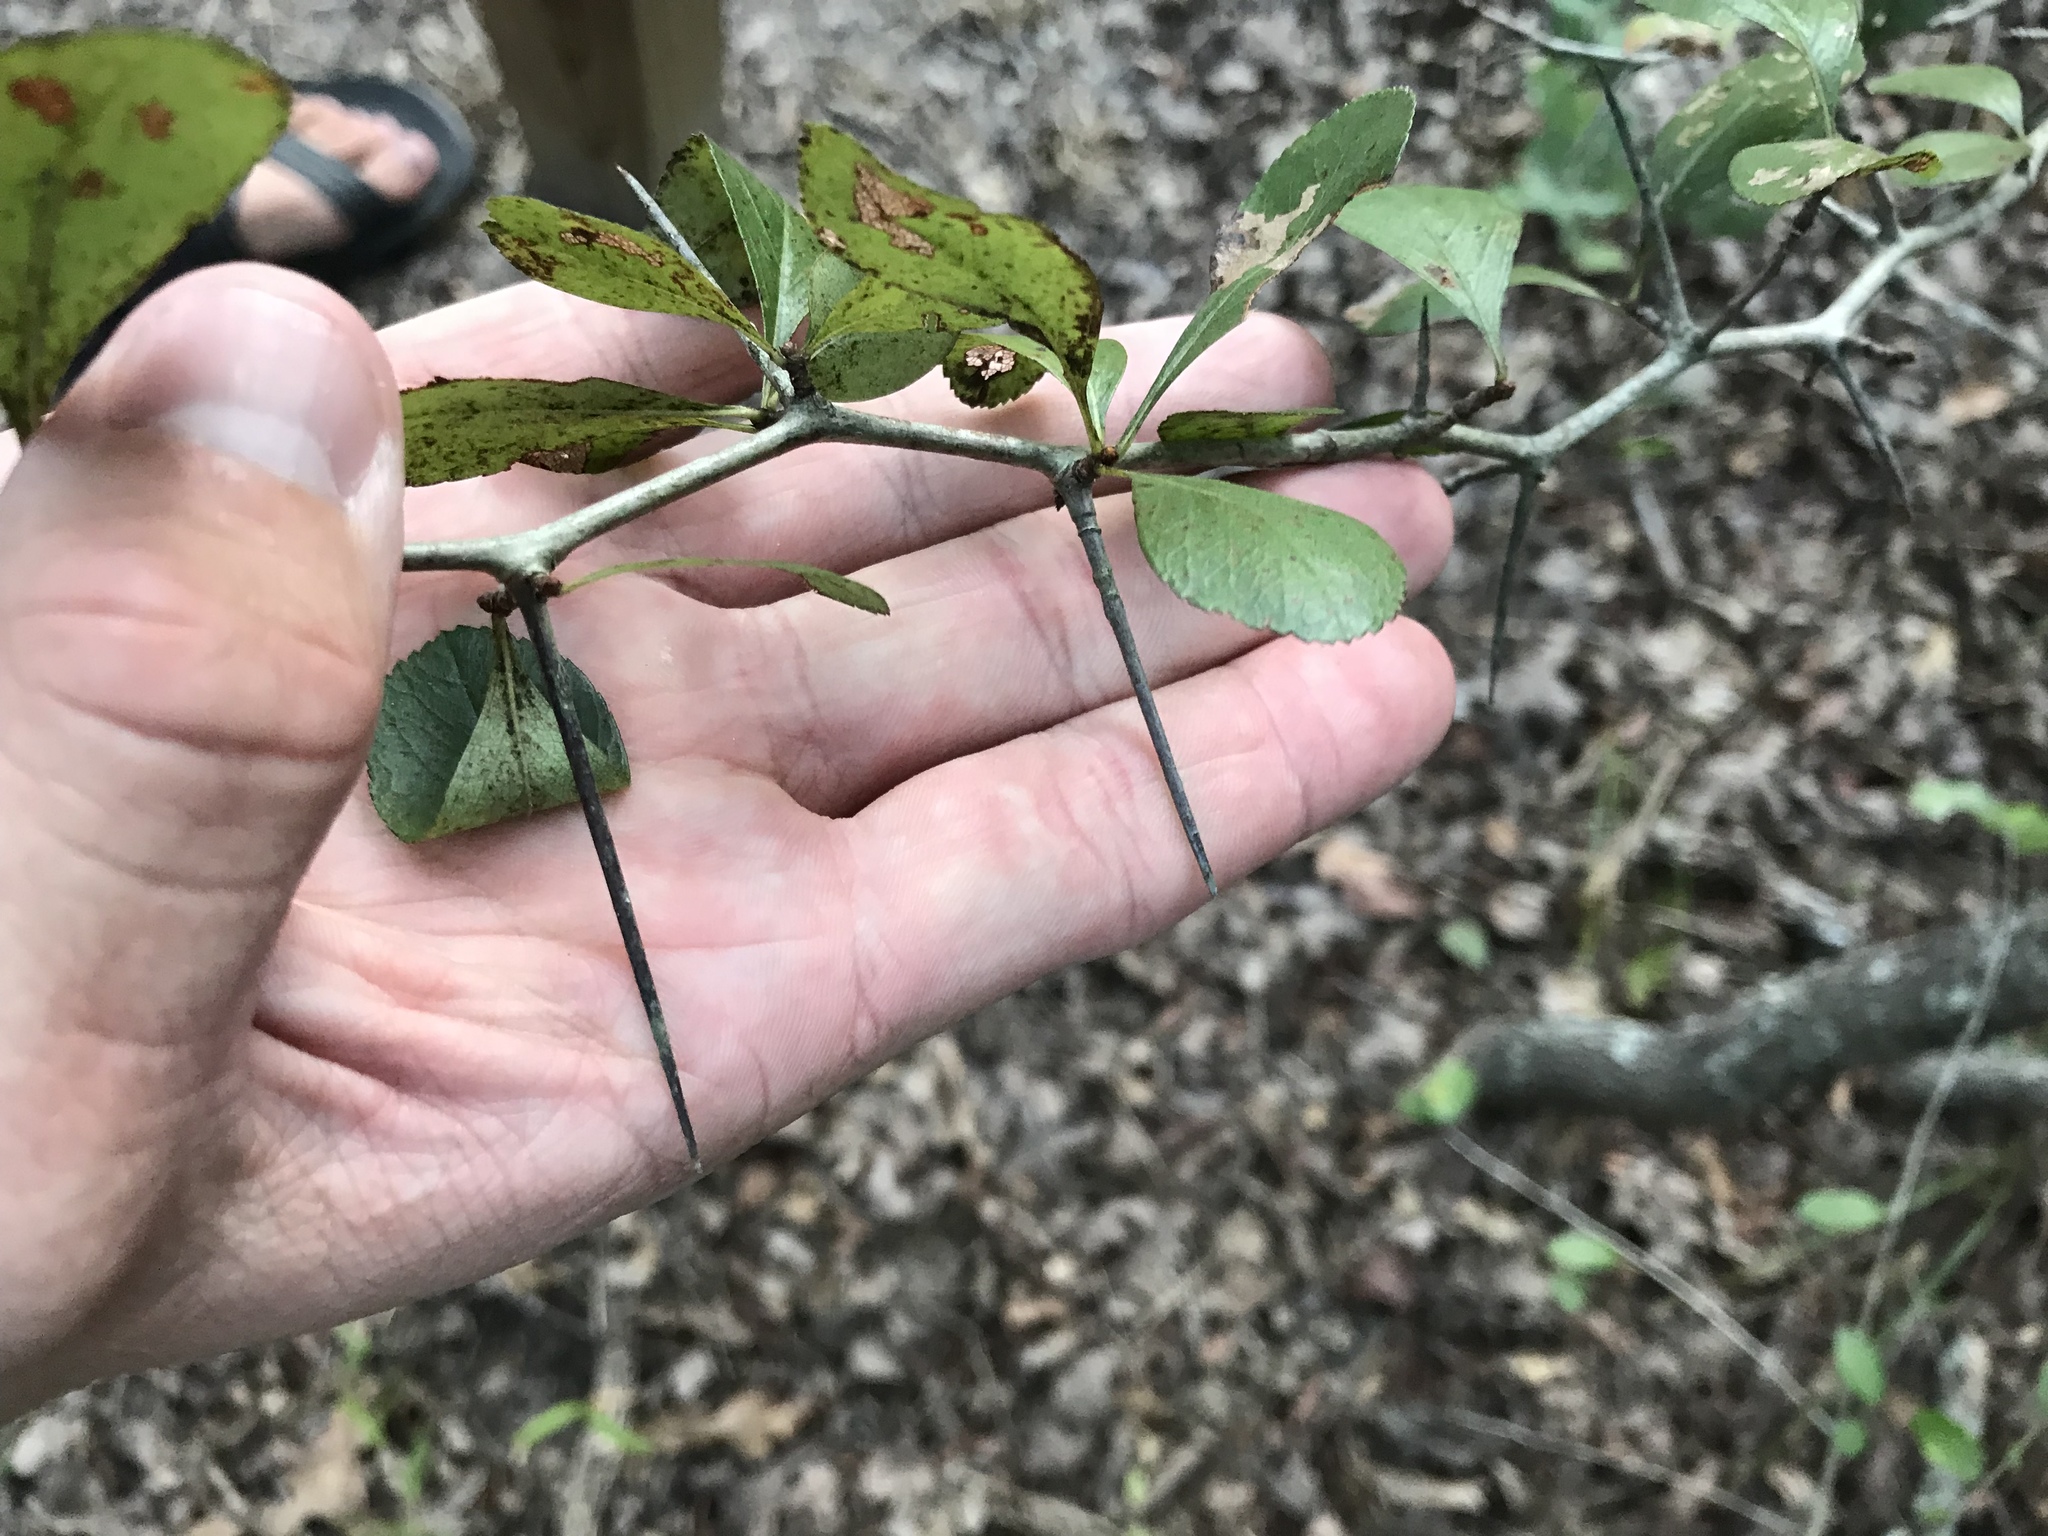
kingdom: Plantae
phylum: Tracheophyta
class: Magnoliopsida
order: Rosales
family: Rosaceae
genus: Crataegus
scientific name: Crataegus crus-galli
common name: Cockspurthorn
